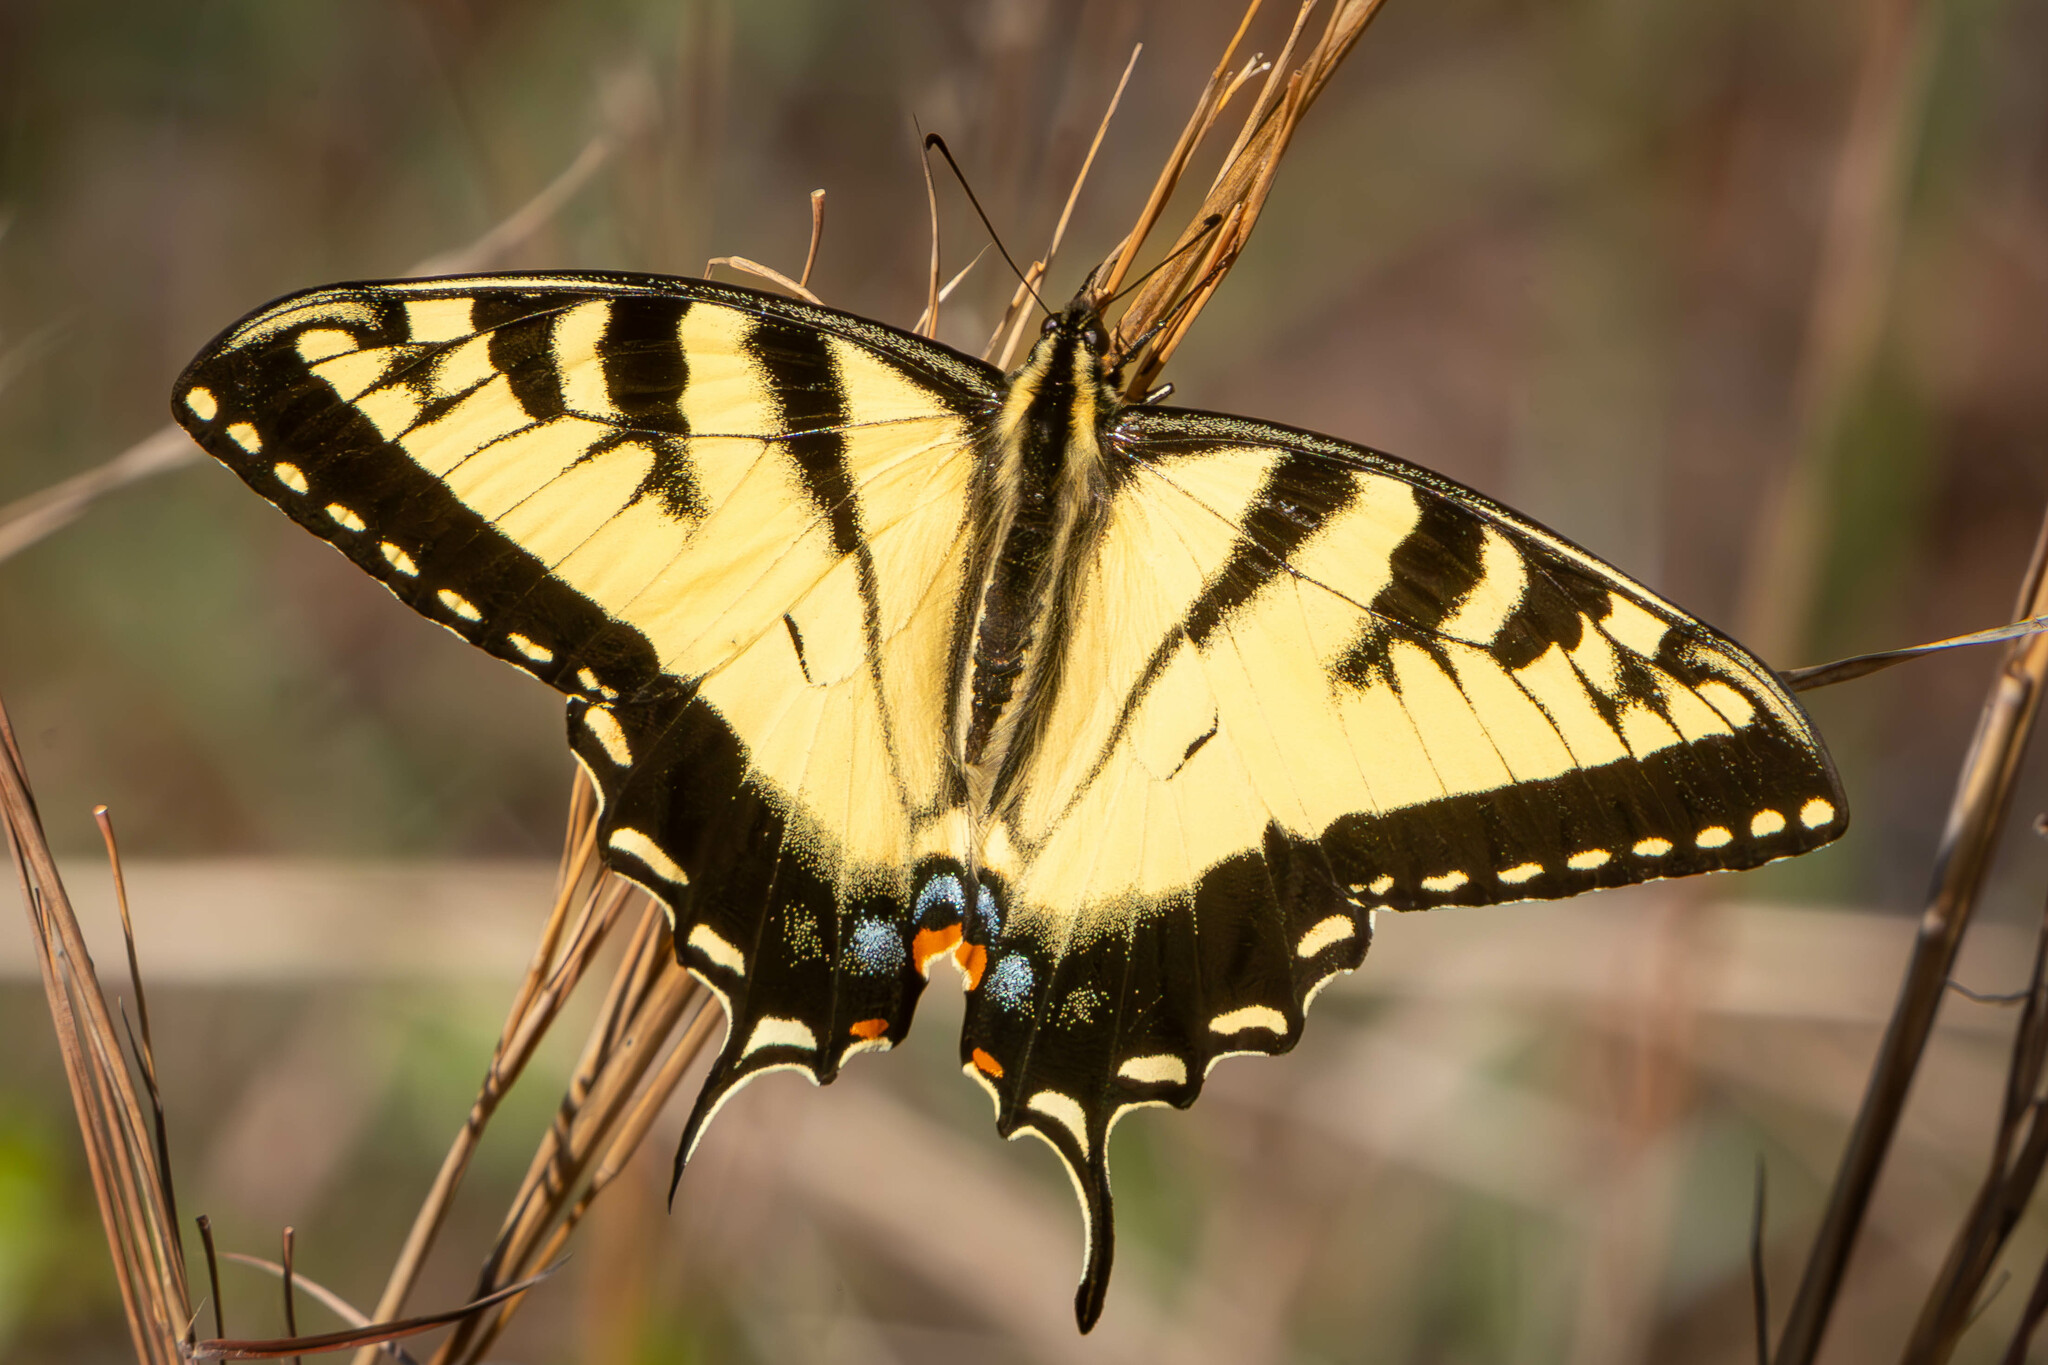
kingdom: Animalia
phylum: Arthropoda
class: Insecta
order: Lepidoptera
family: Papilionidae
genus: Papilio
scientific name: Papilio glaucus
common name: Tiger swallowtail
